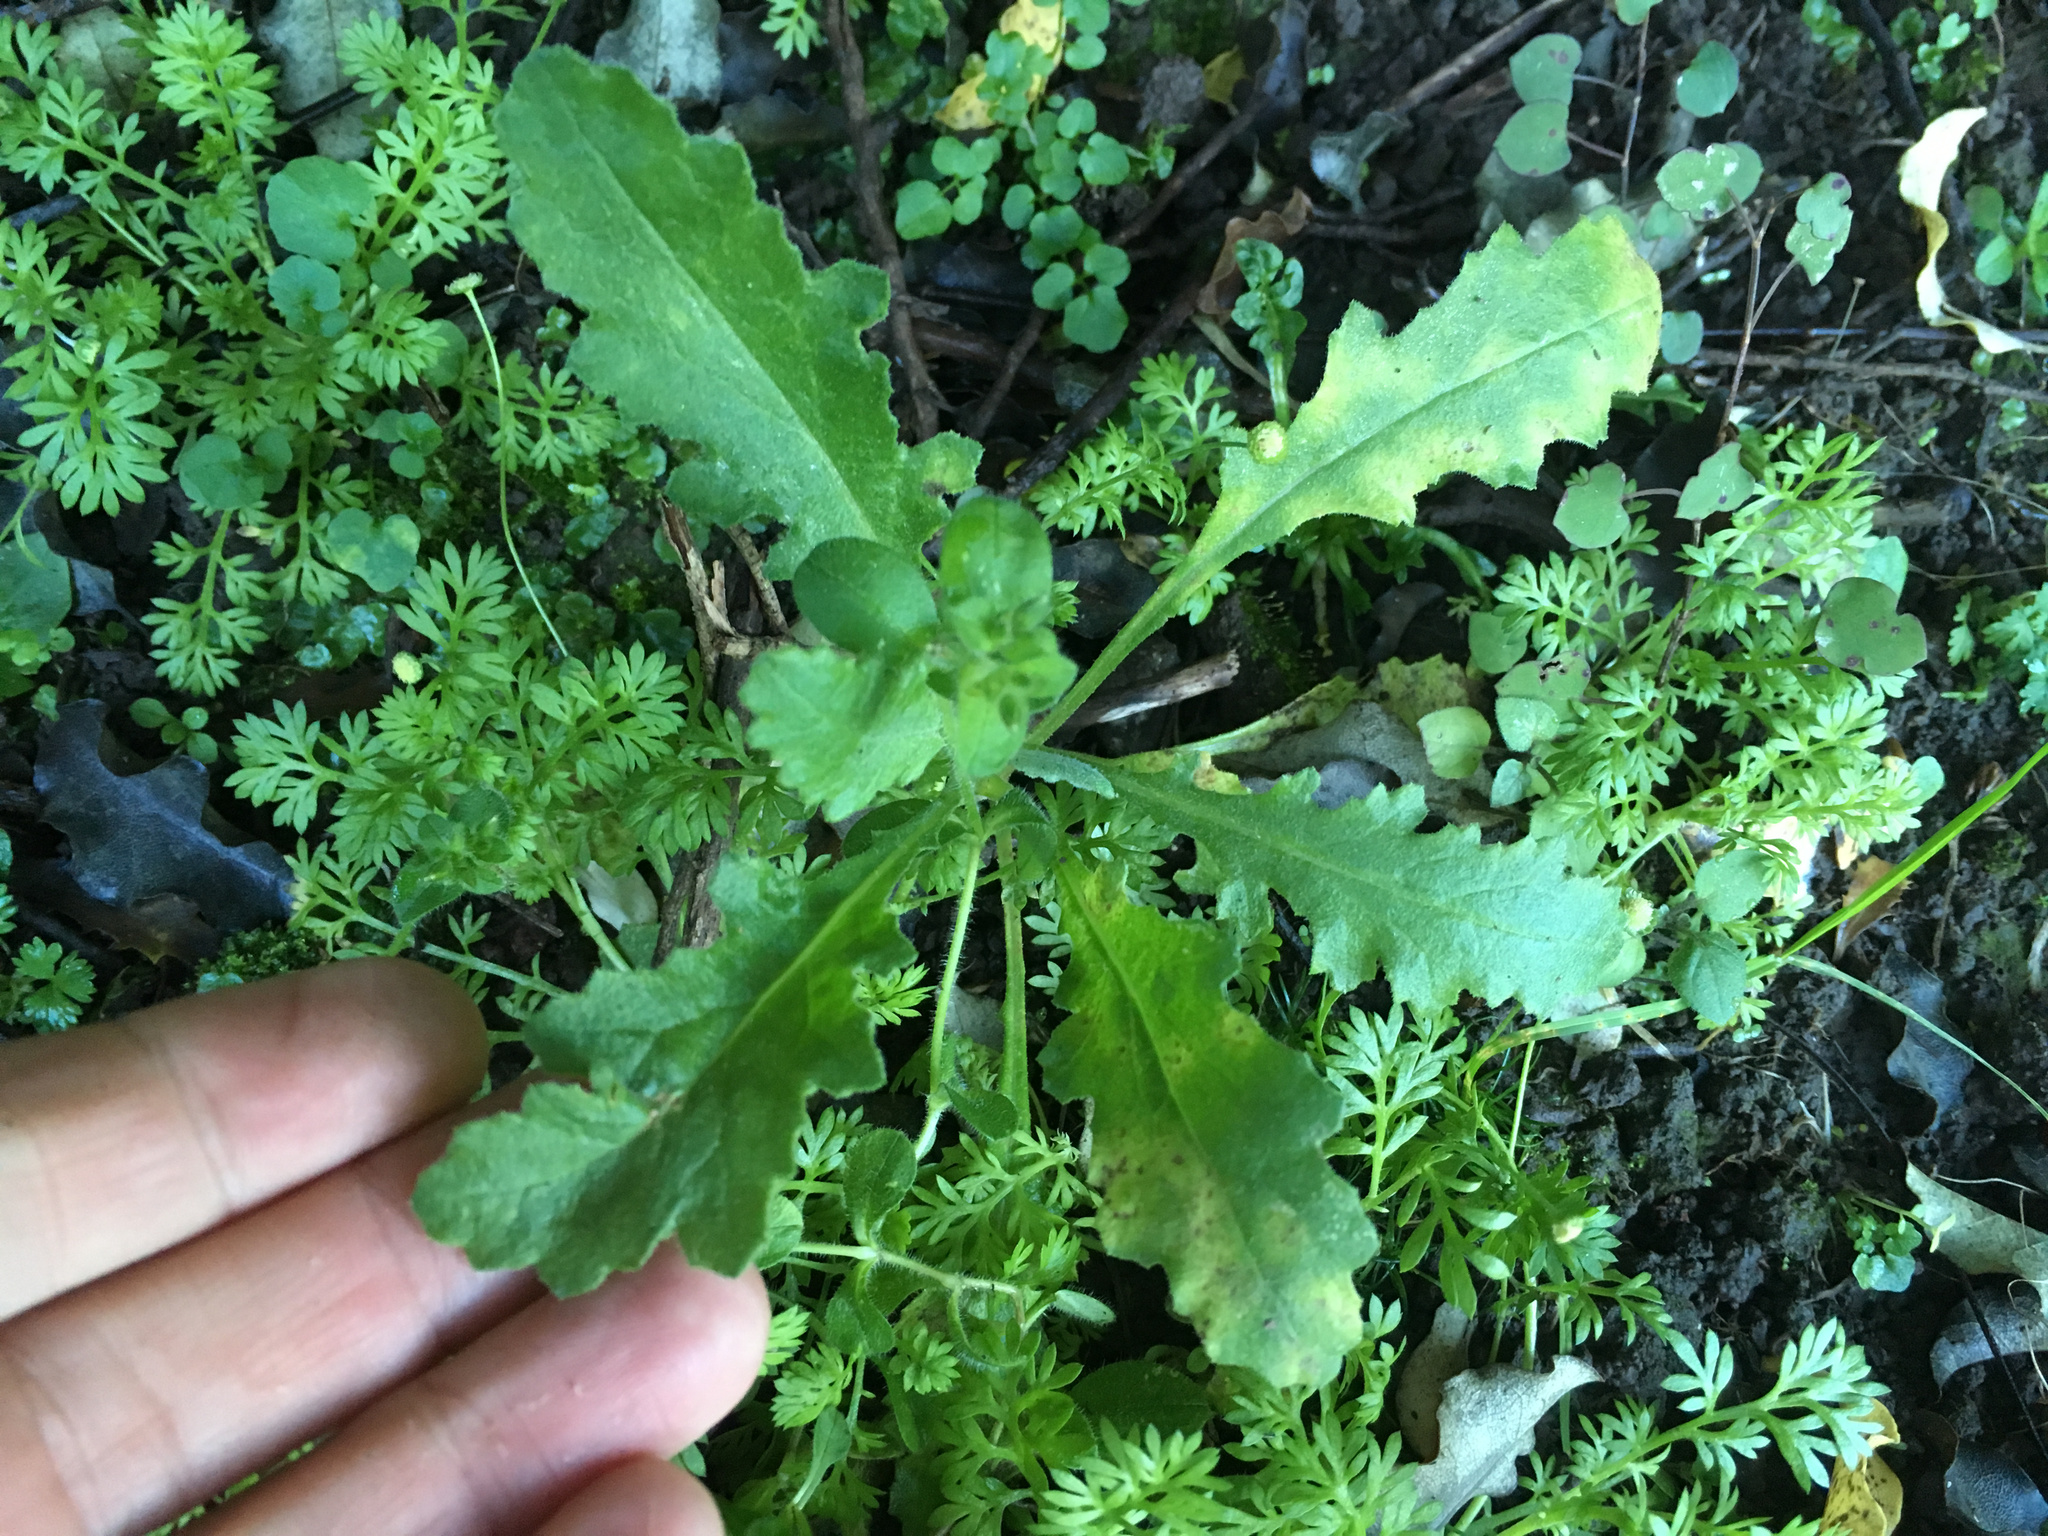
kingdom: Plantae
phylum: Tracheophyta
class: Magnoliopsida
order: Asterales
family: Asteraceae
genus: Senecio
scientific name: Senecio glomeratus
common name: Cutleaf burnweed
